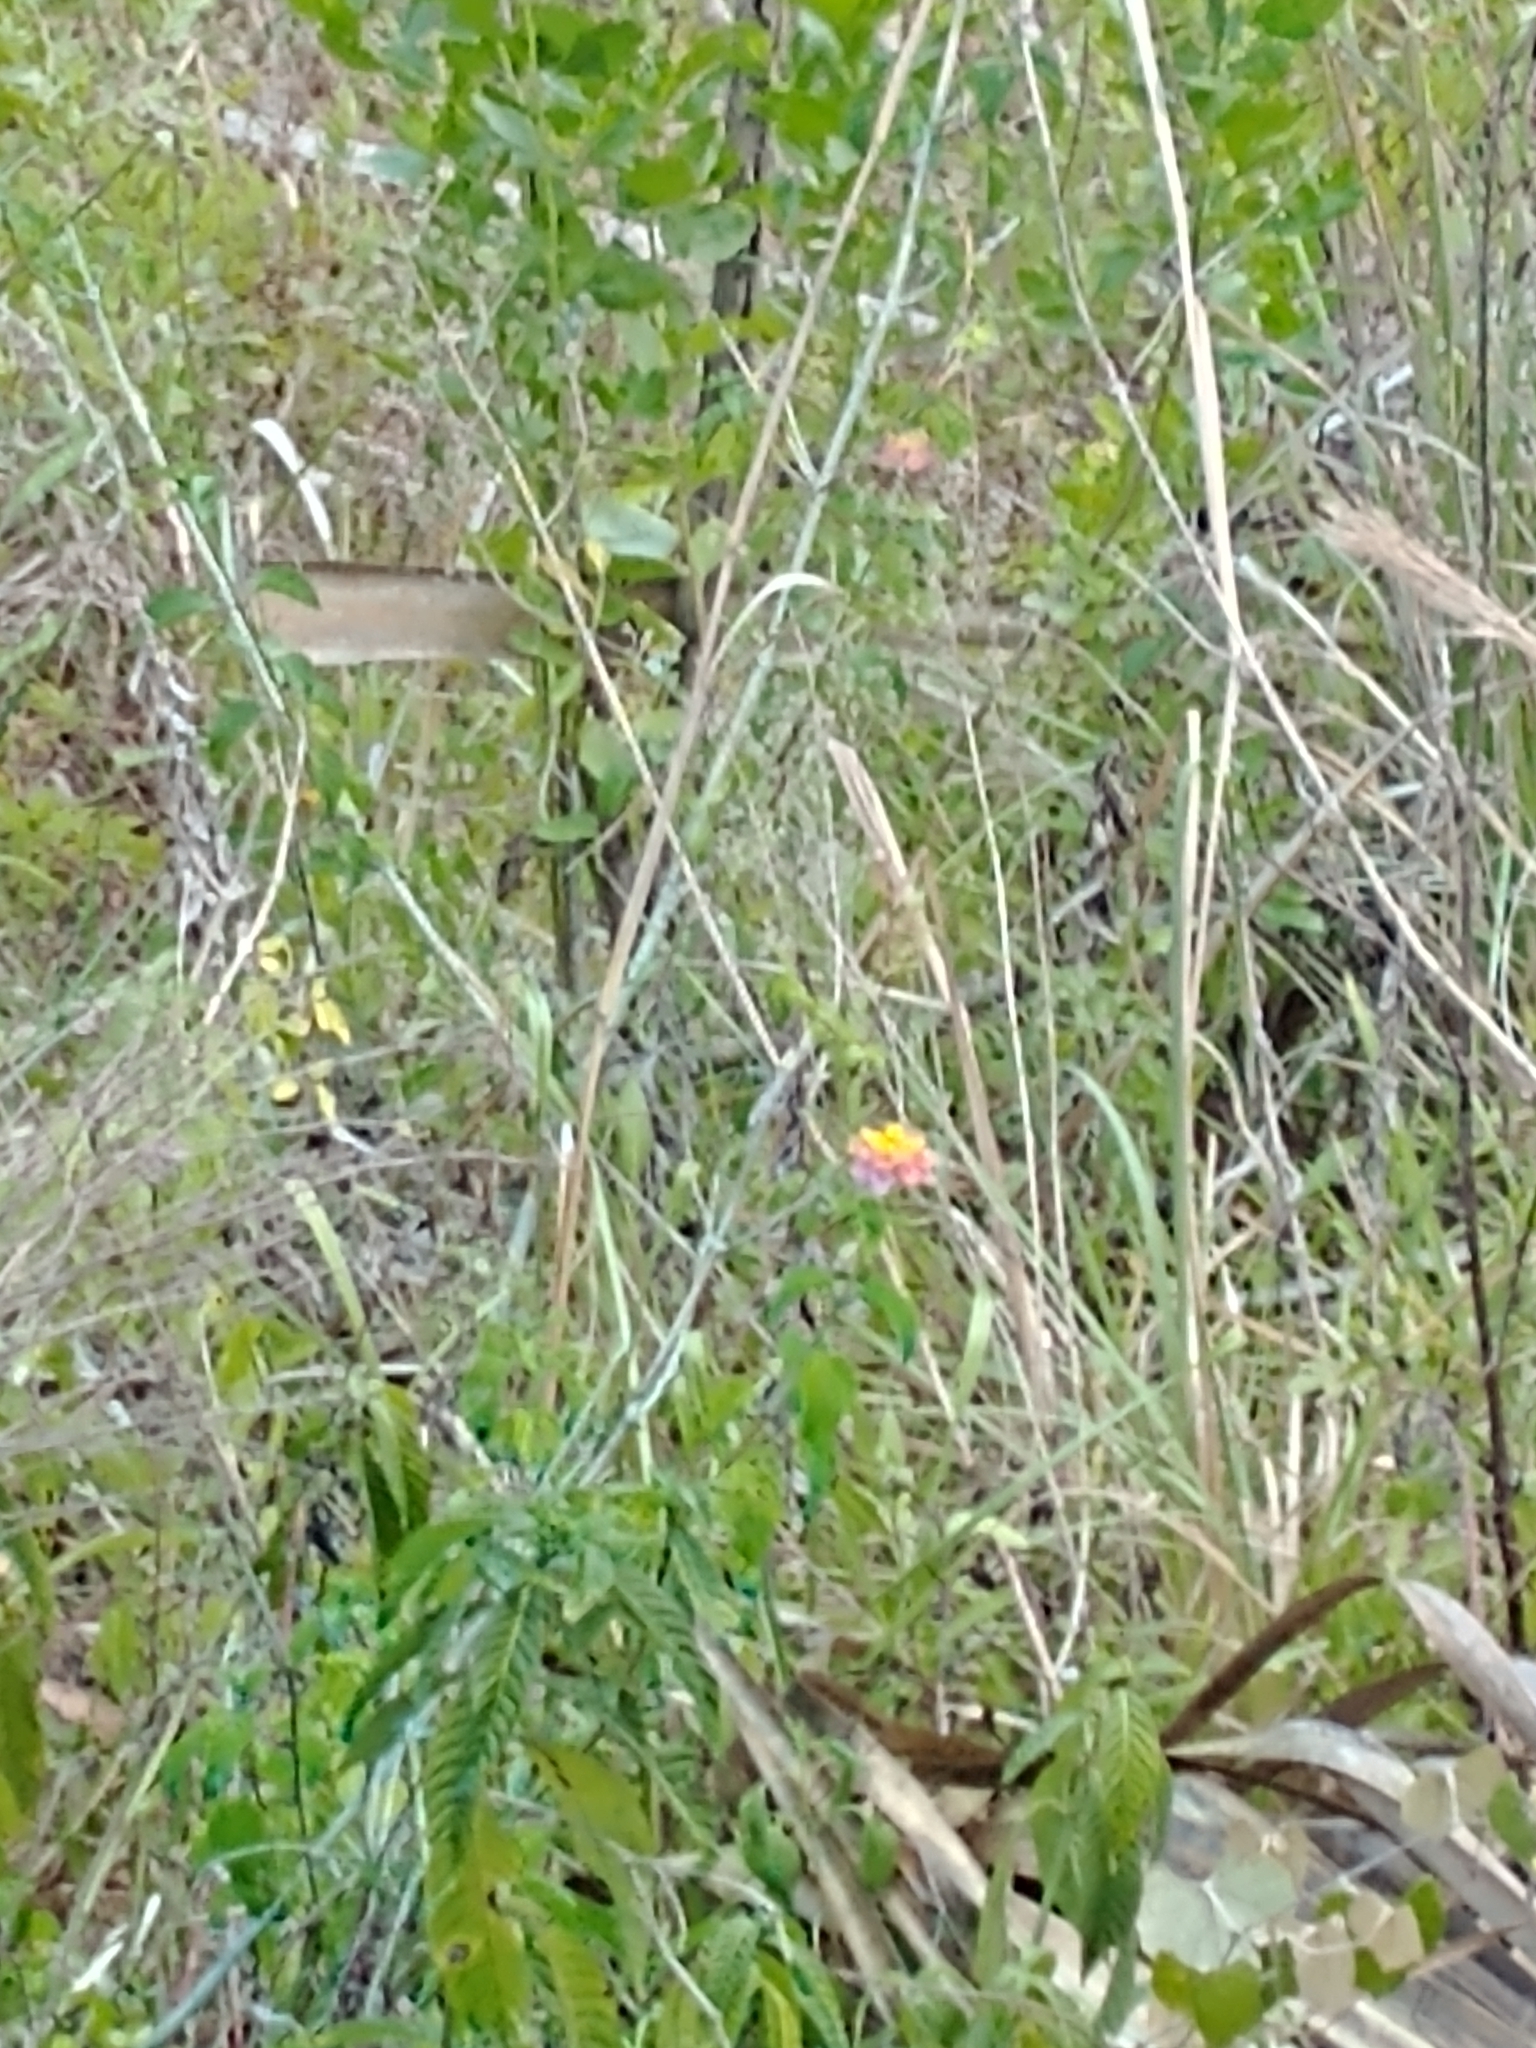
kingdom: Plantae
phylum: Tracheophyta
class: Magnoliopsida
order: Lamiales
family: Verbenaceae
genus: Lantana
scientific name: Lantana strigocamara
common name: Lantana
